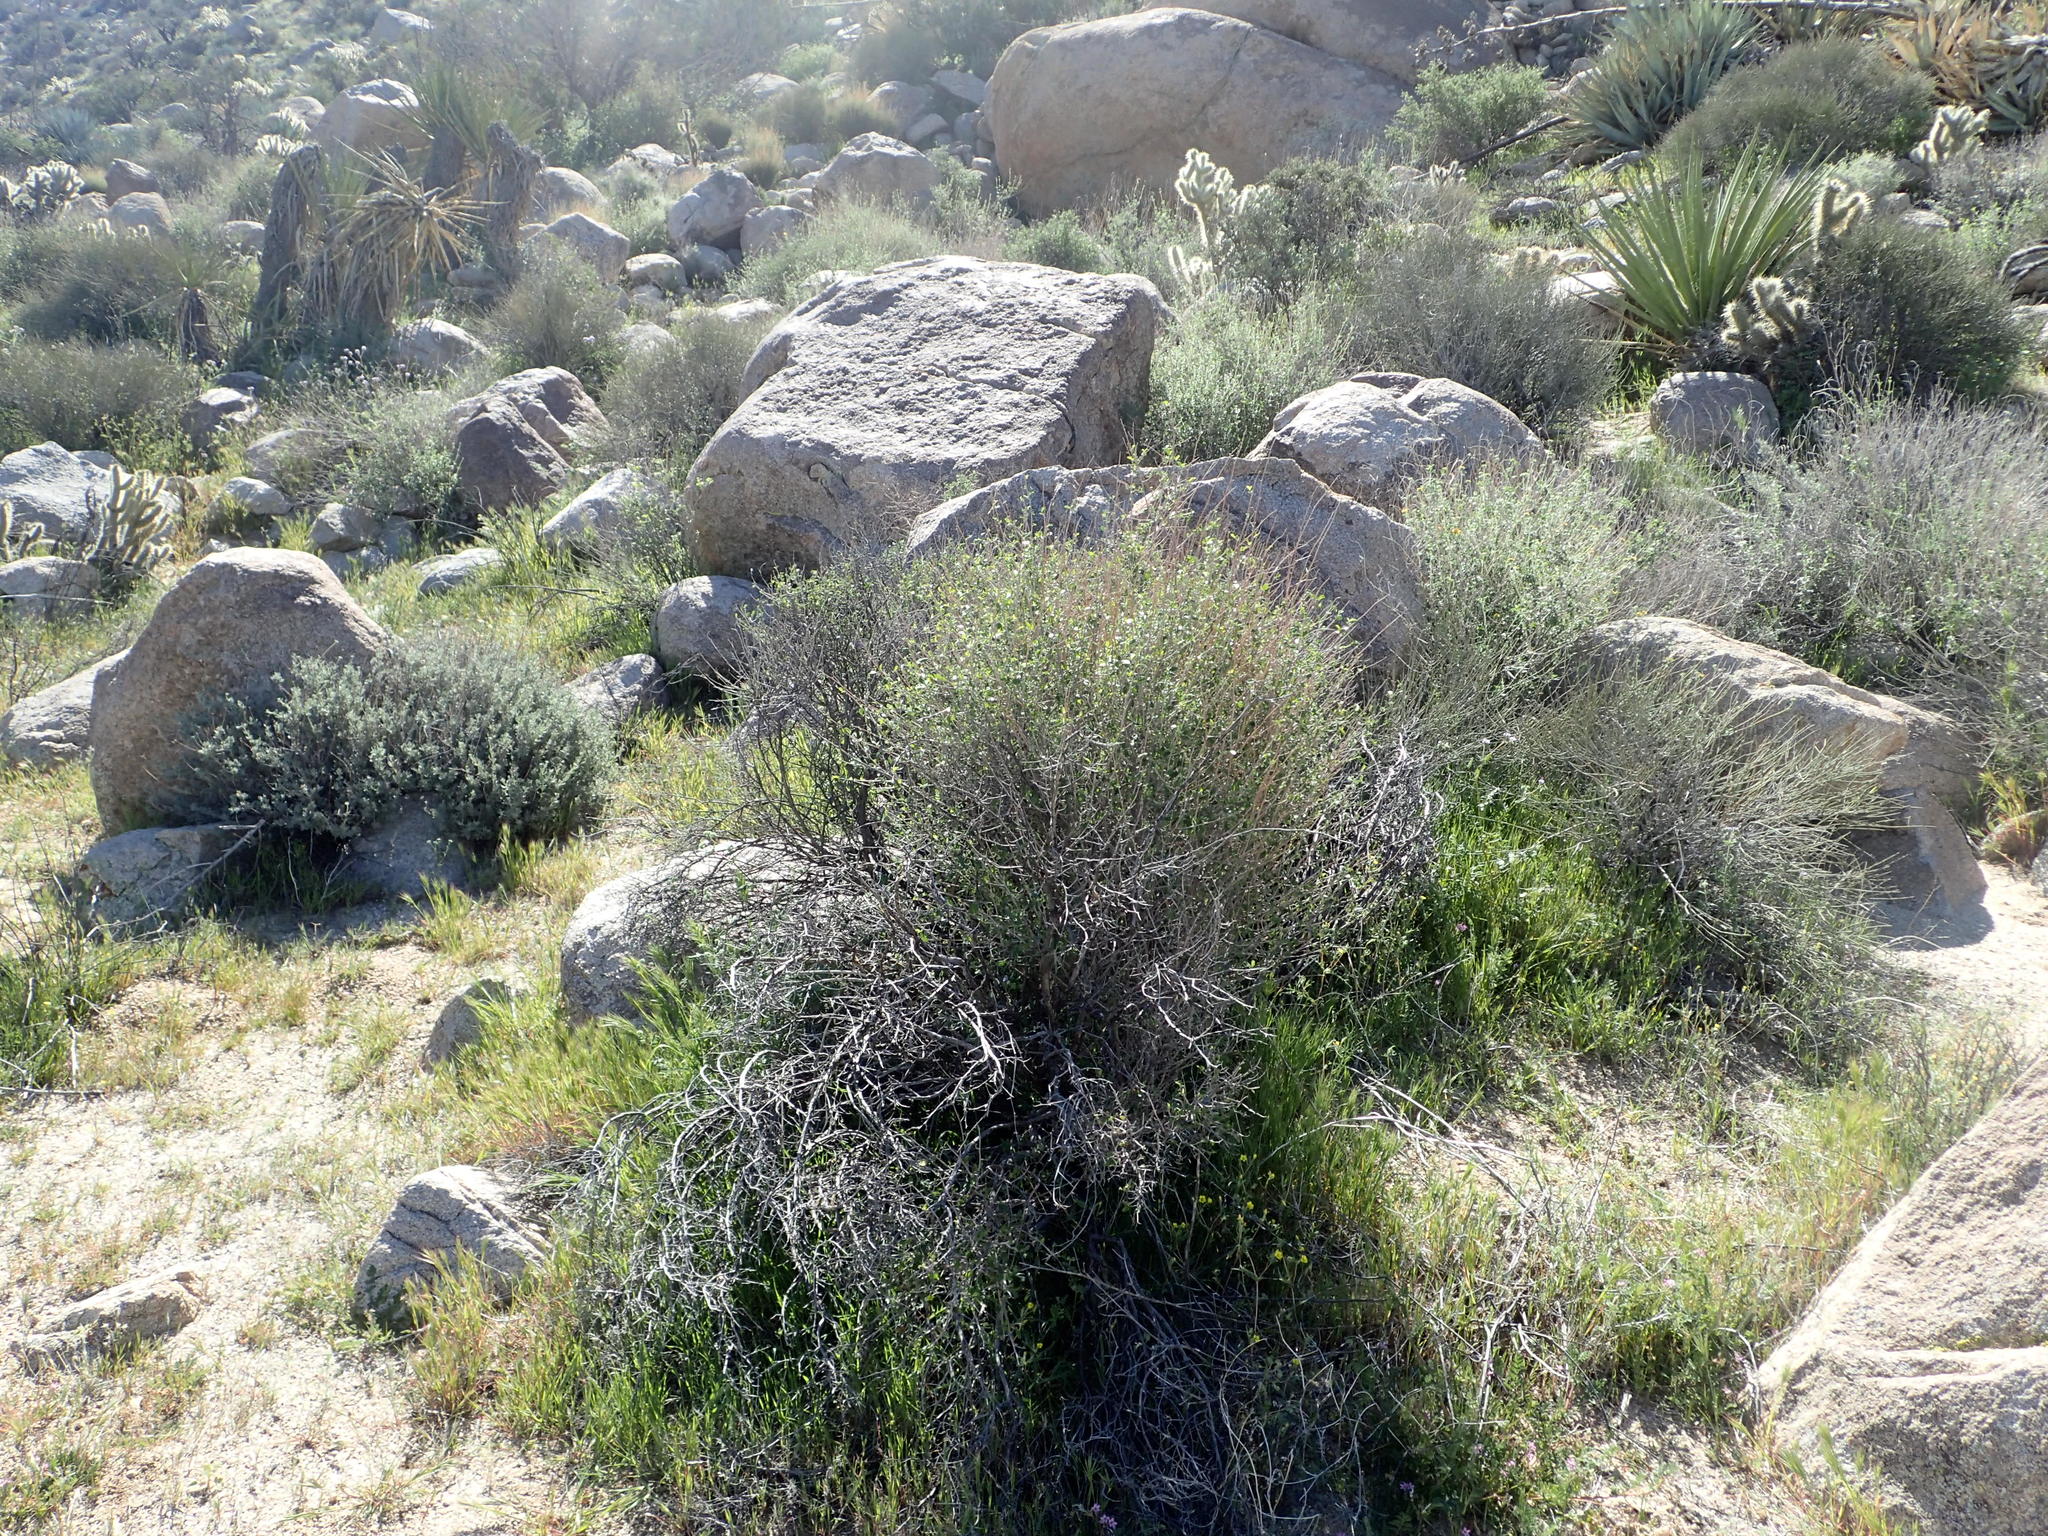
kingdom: Plantae
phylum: Tracheophyta
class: Magnoliopsida
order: Sapindales
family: Rutaceae
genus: Thamnosma
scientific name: Thamnosma montana
